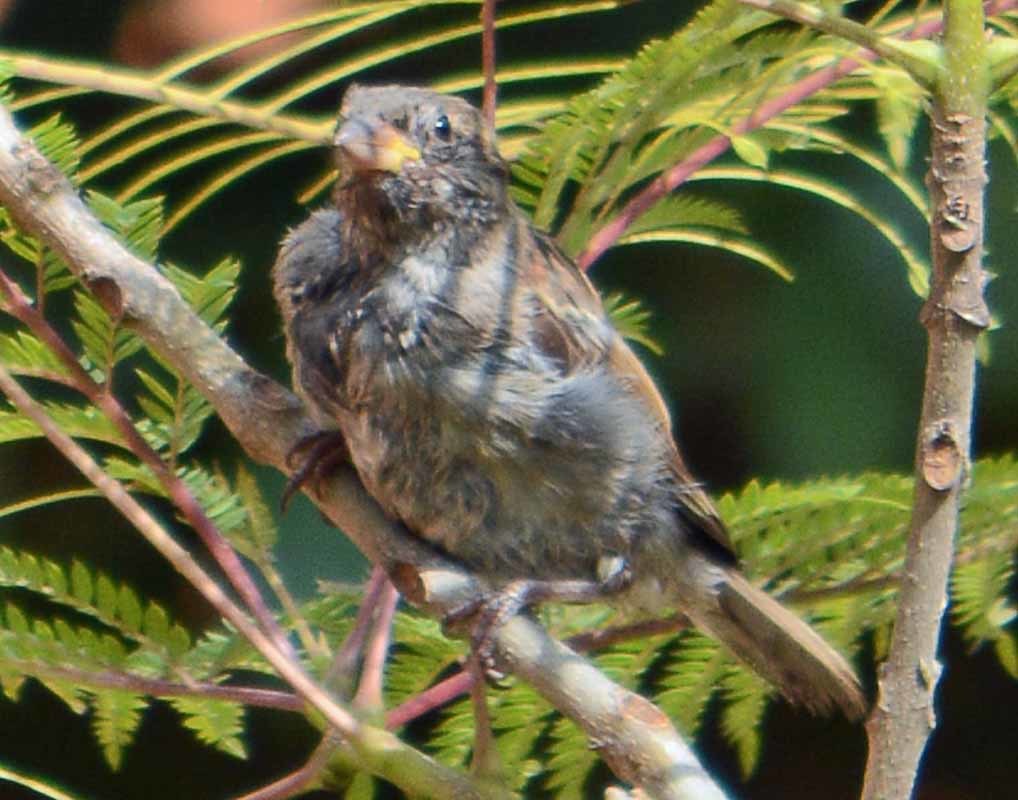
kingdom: Animalia
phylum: Chordata
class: Aves
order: Passeriformes
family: Passeridae
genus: Passer
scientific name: Passer domesticus
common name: House sparrow
